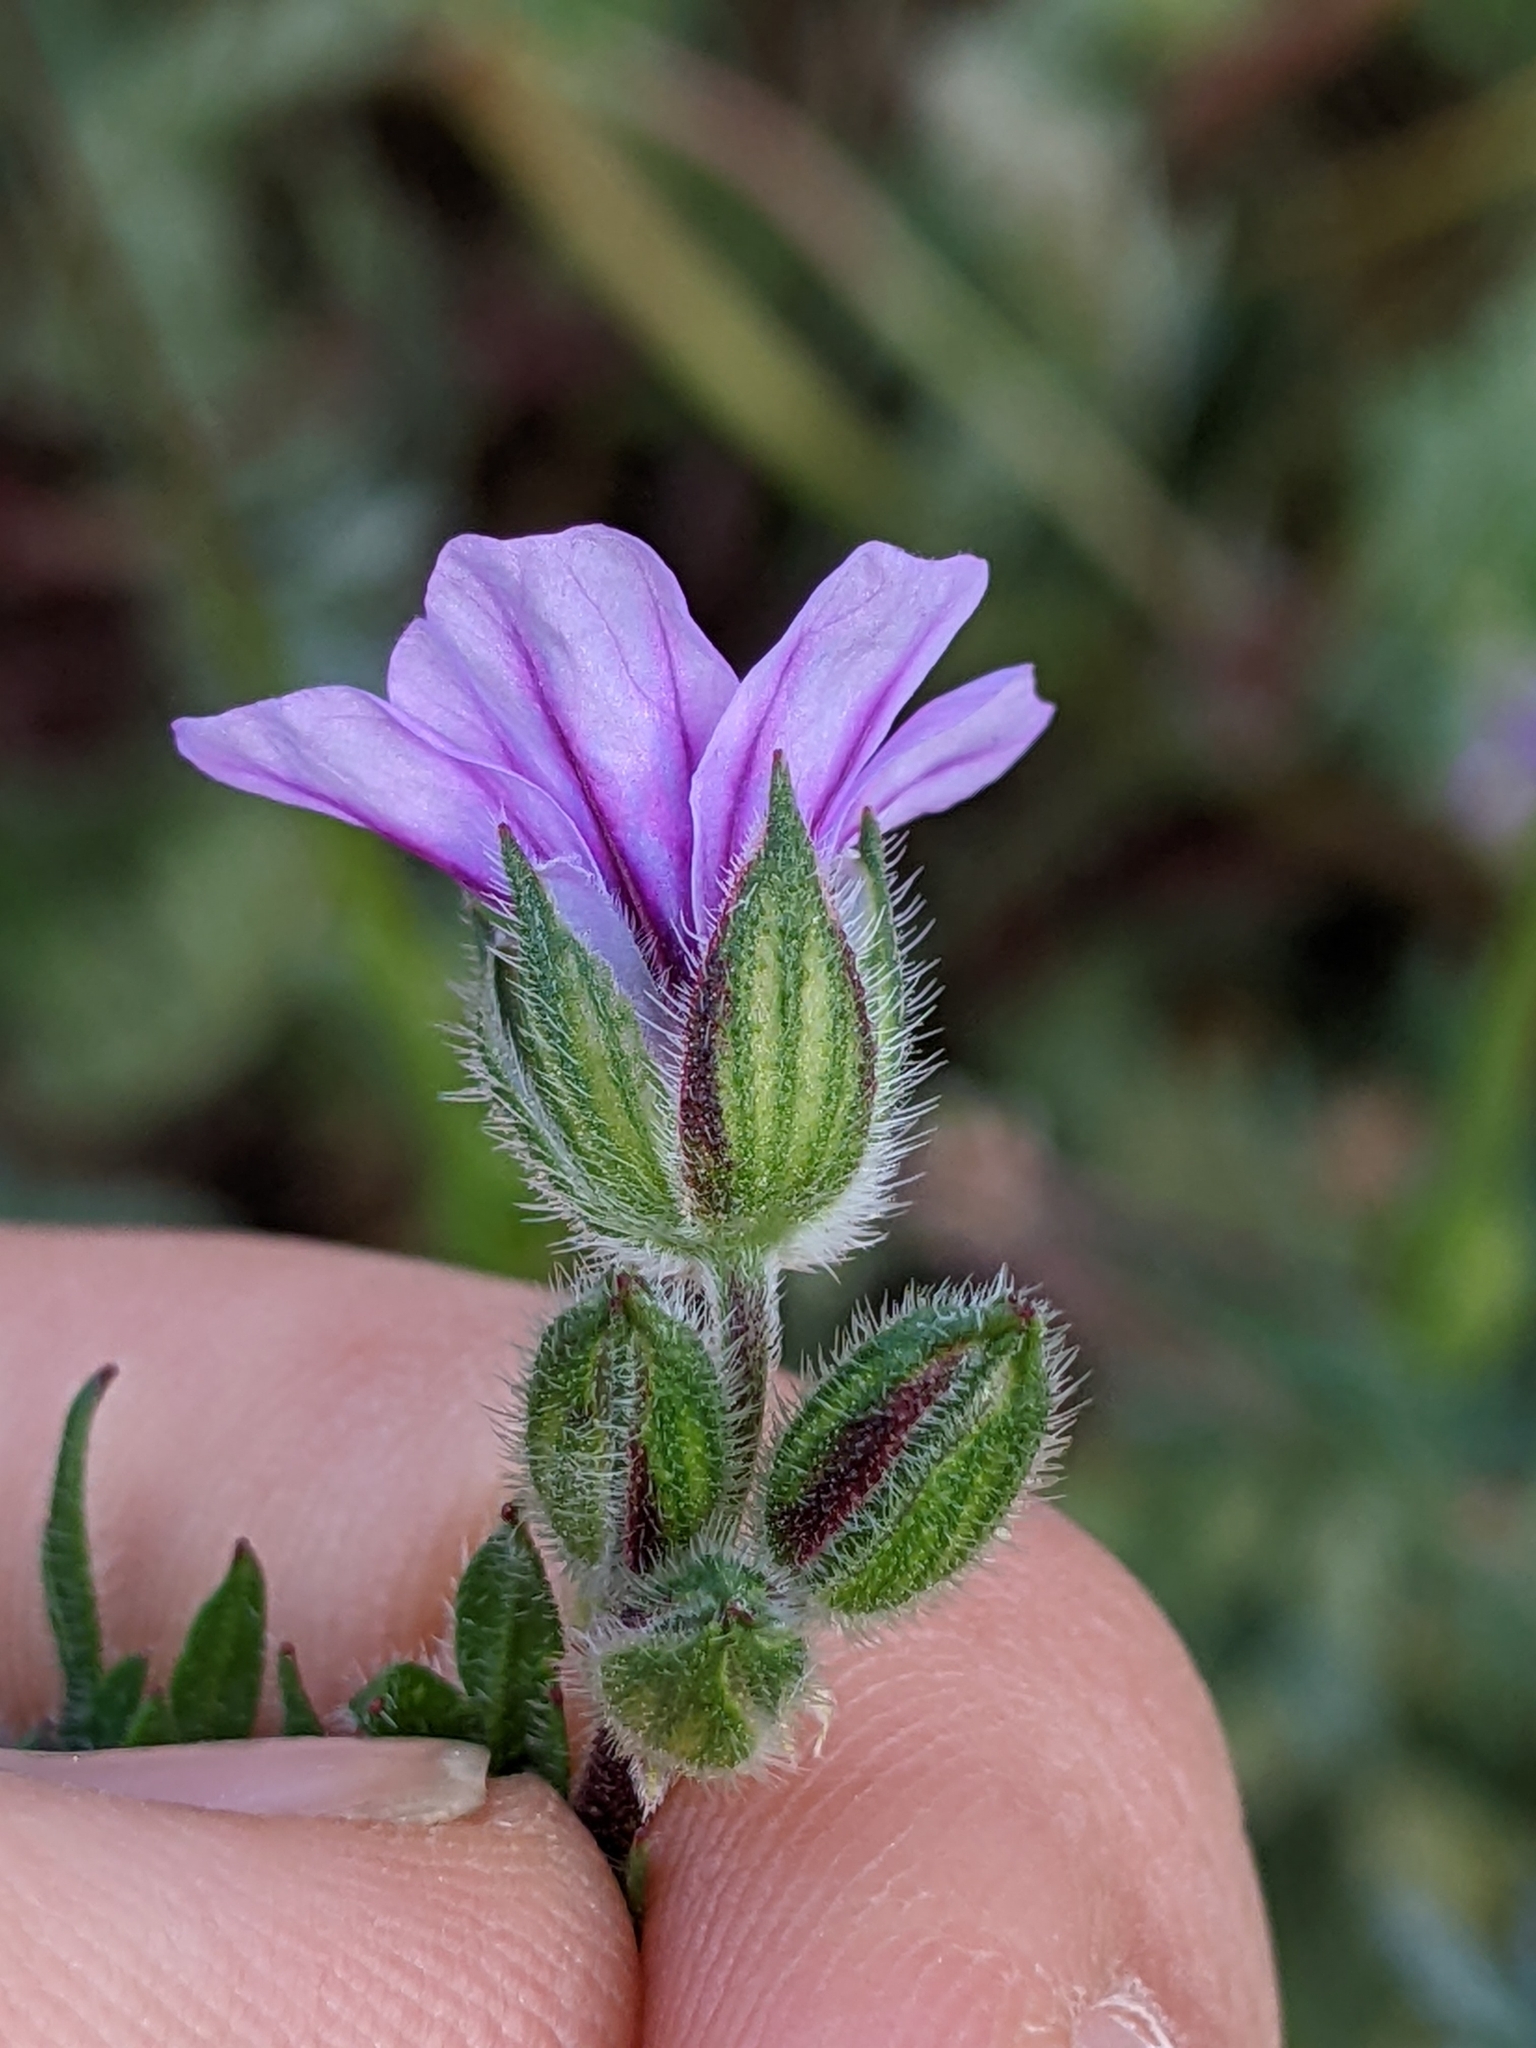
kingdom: Plantae
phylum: Tracheophyta
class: Magnoliopsida
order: Geraniales
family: Geraniaceae
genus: Erodium
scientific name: Erodium botrys
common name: Mediterranean stork's-bill
